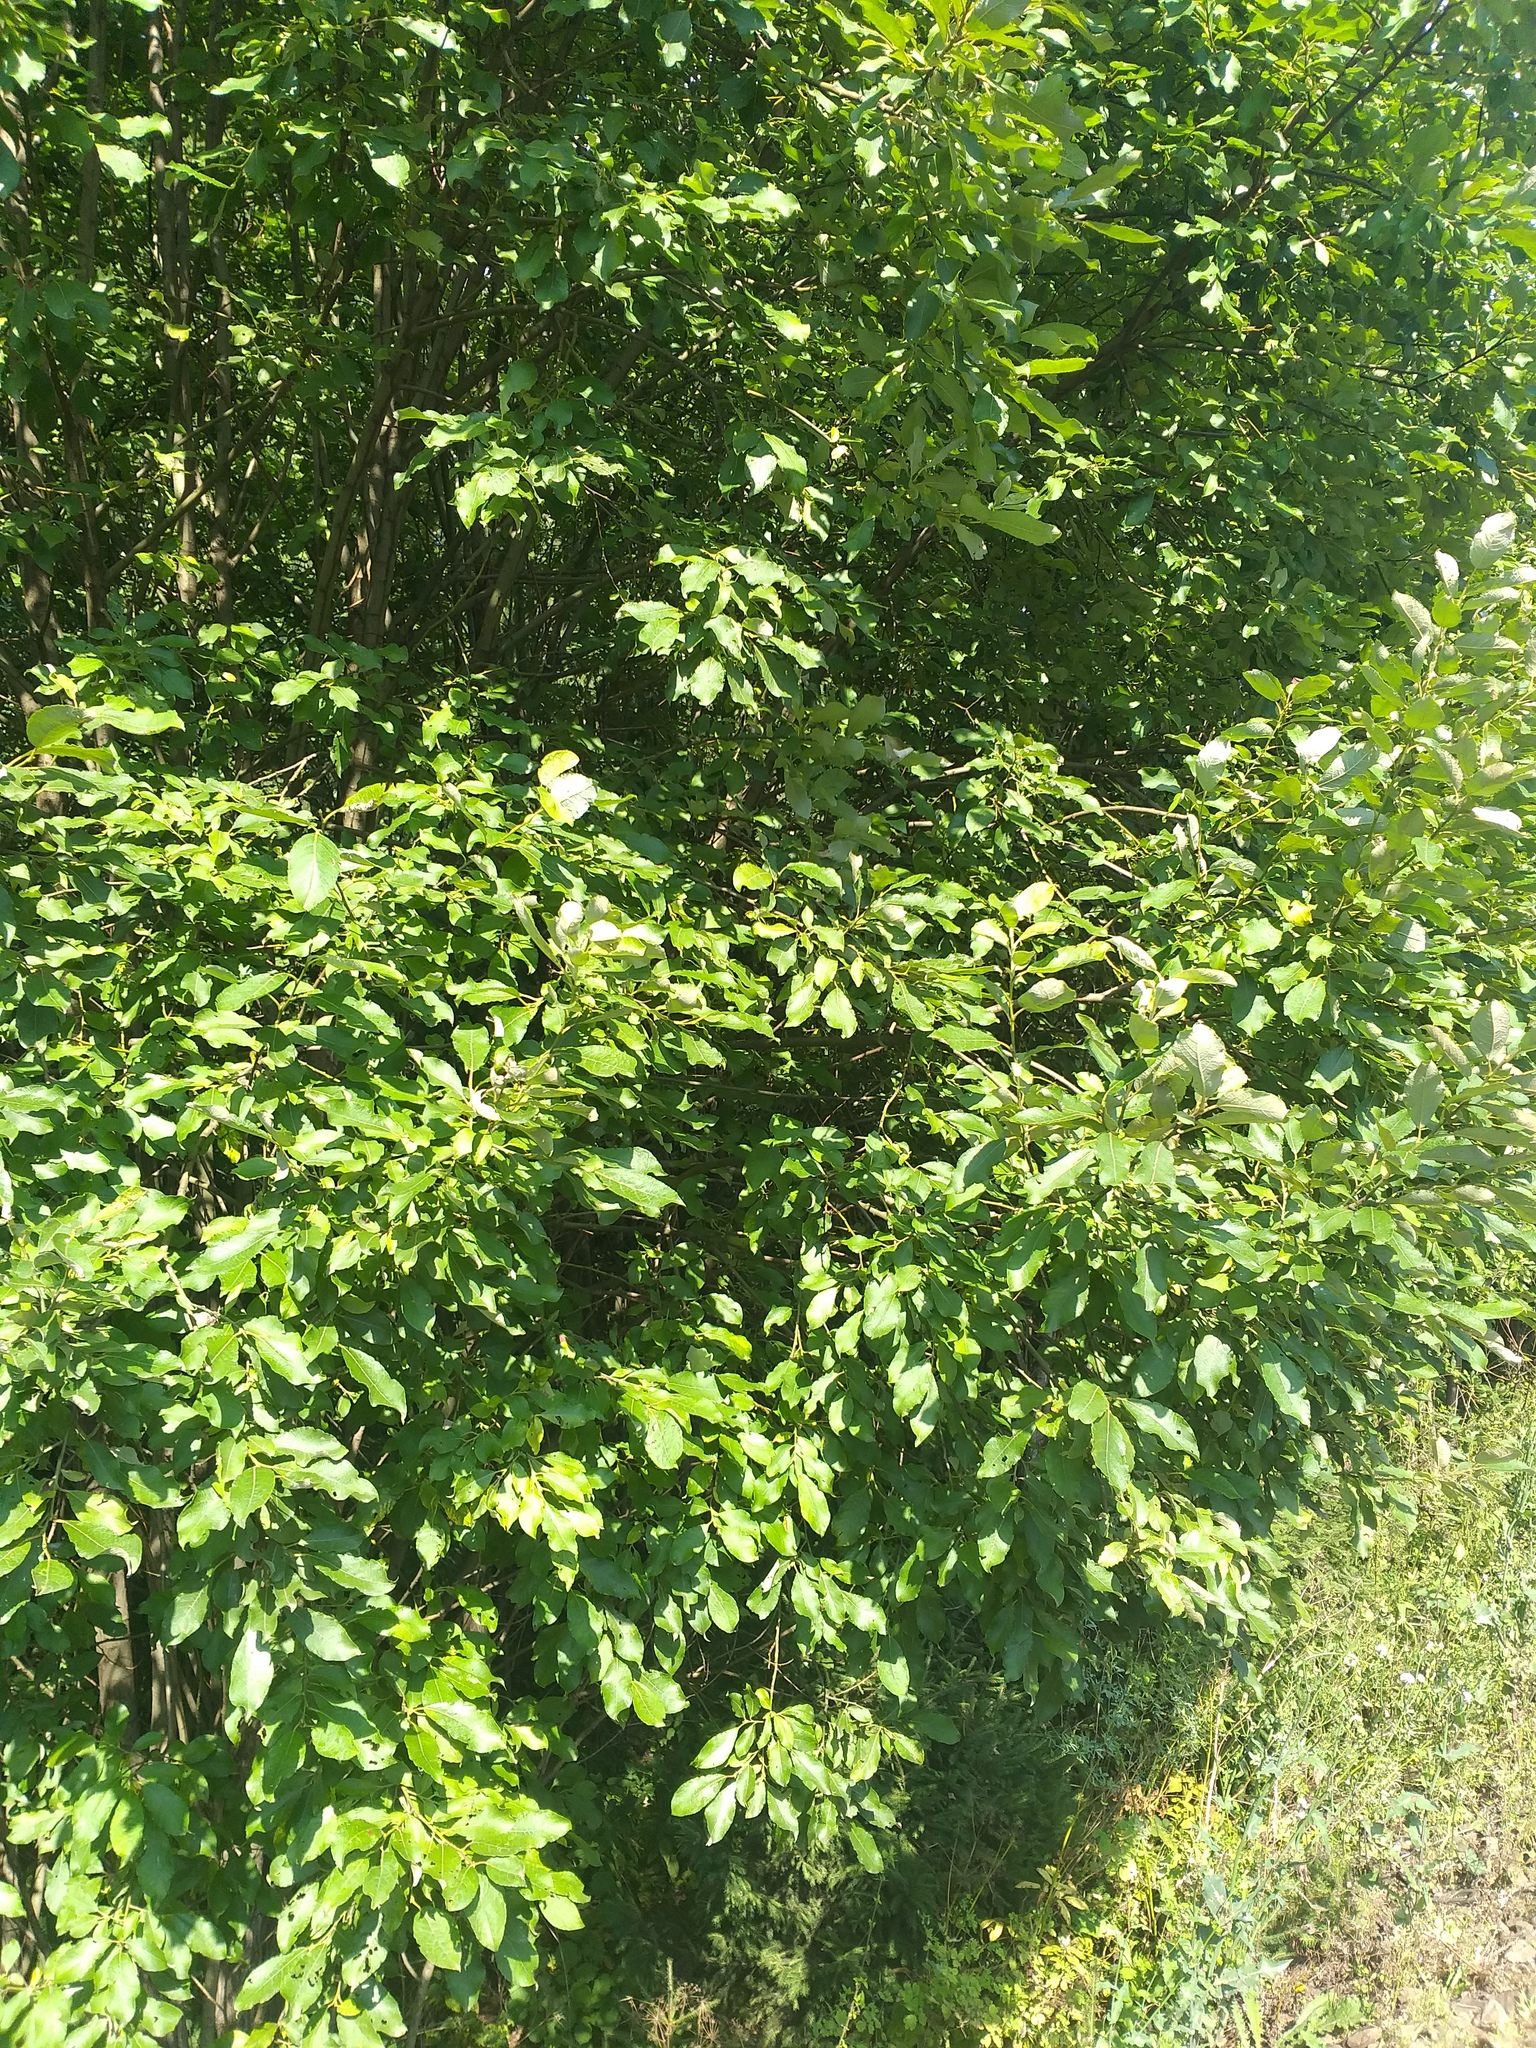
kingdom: Plantae
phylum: Tracheophyta
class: Magnoliopsida
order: Malpighiales
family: Salicaceae
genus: Salix
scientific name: Salix caprea
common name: Goat willow
